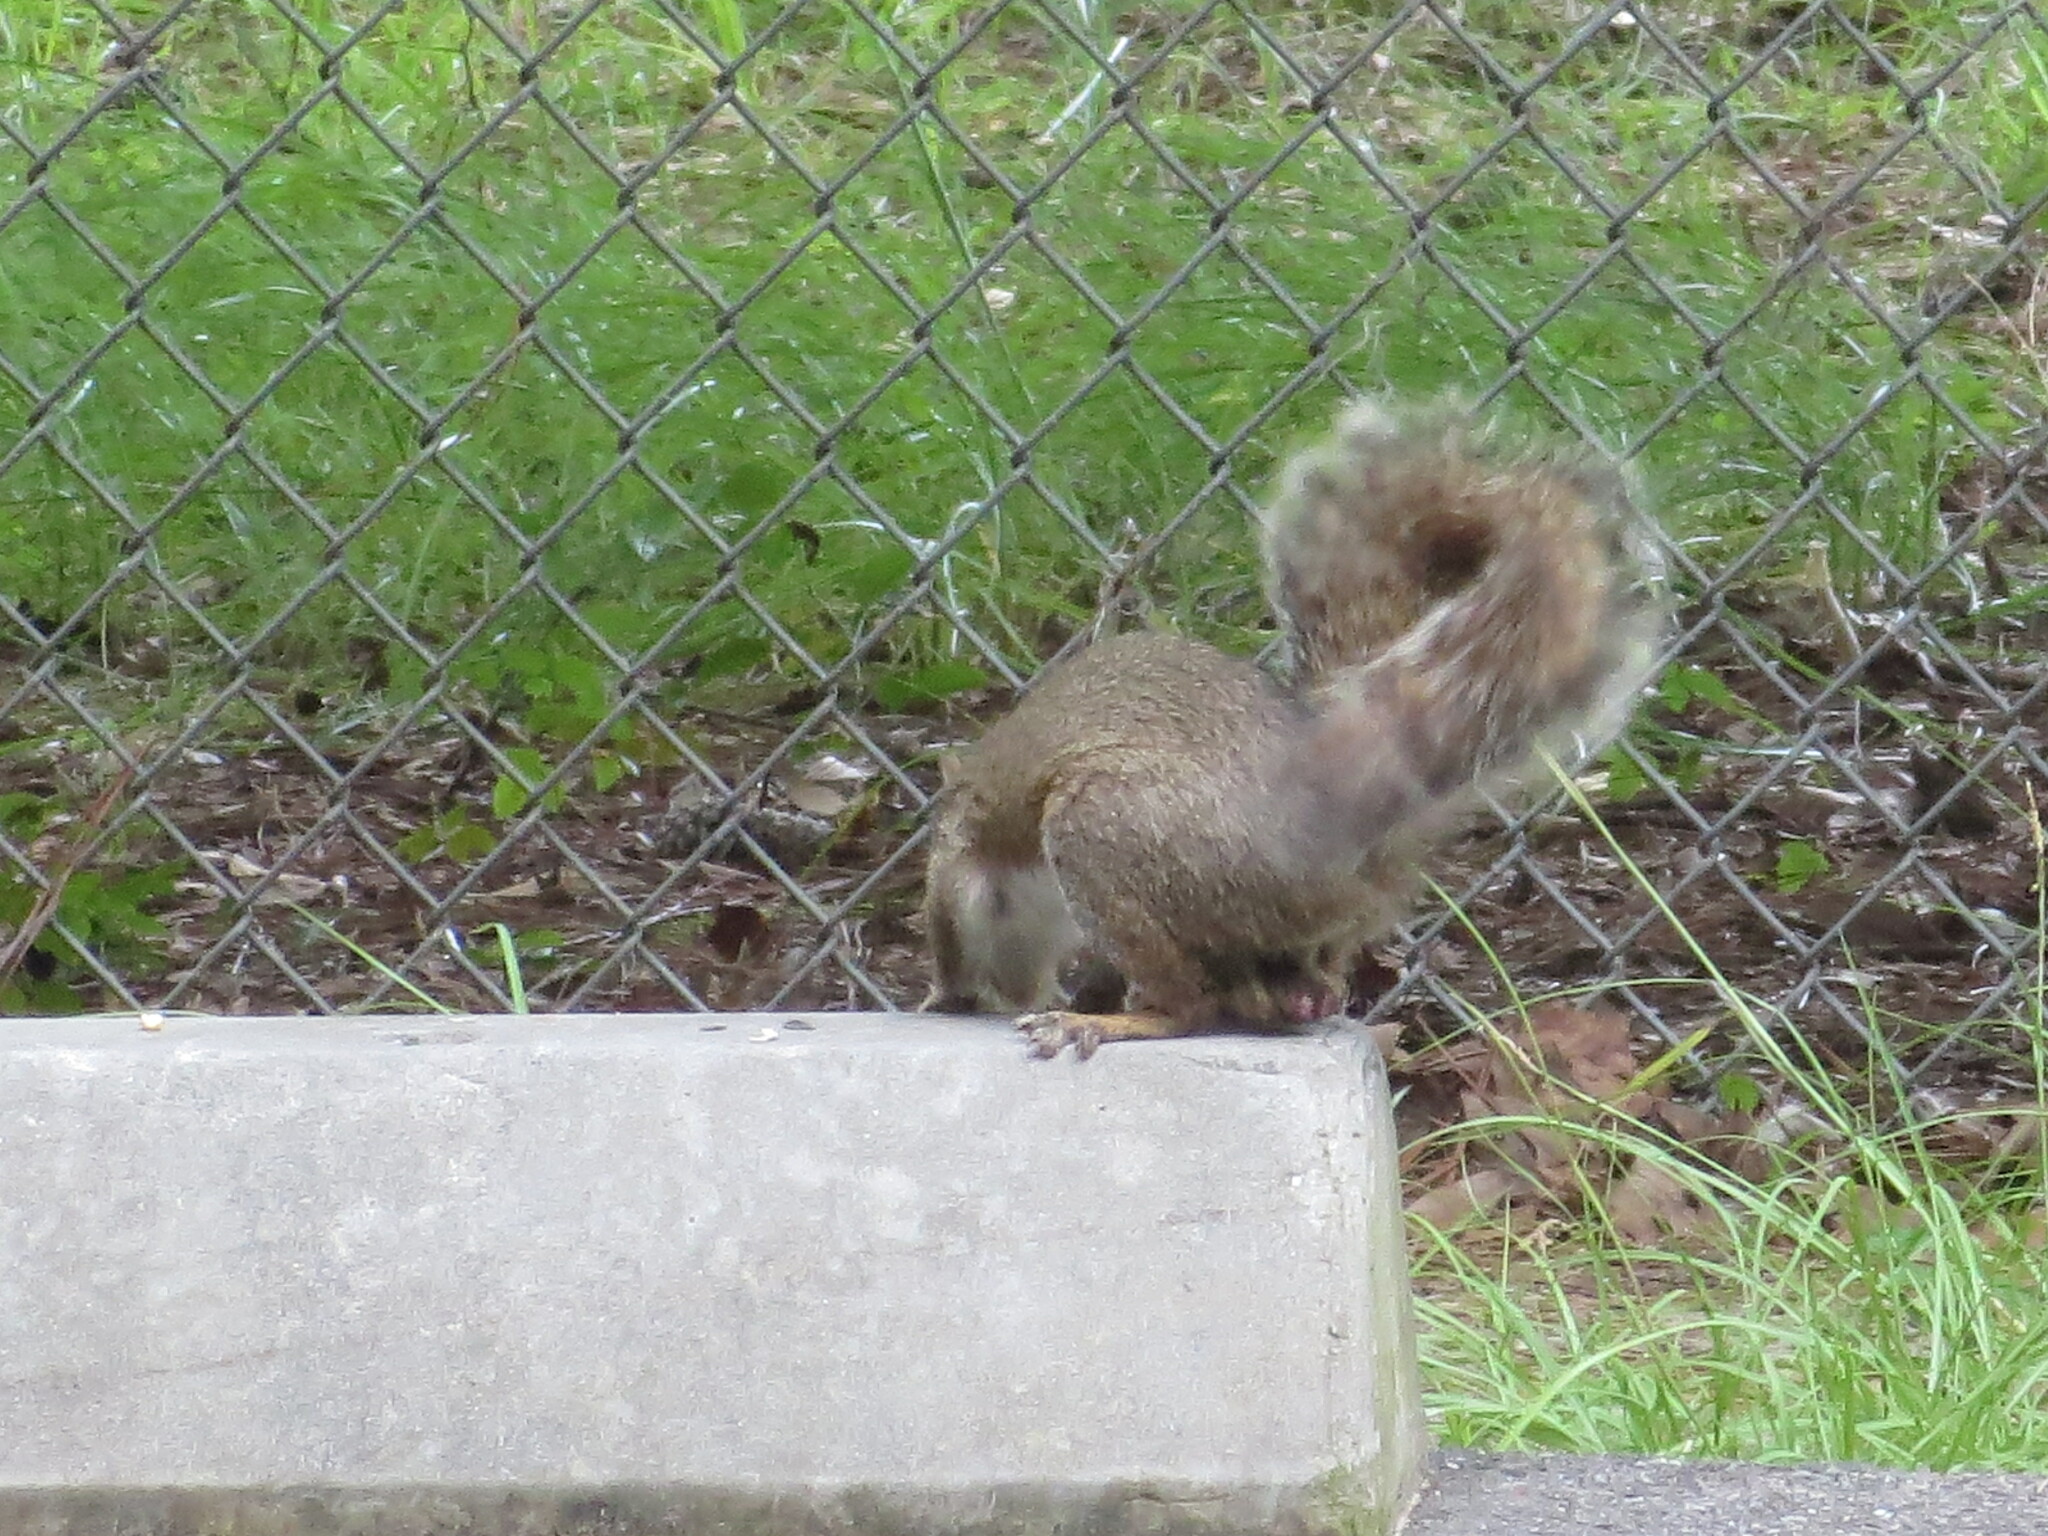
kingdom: Animalia
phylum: Chordata
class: Mammalia
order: Rodentia
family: Sciuridae
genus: Sciurus
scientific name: Sciurus carolinensis
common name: Eastern gray squirrel
